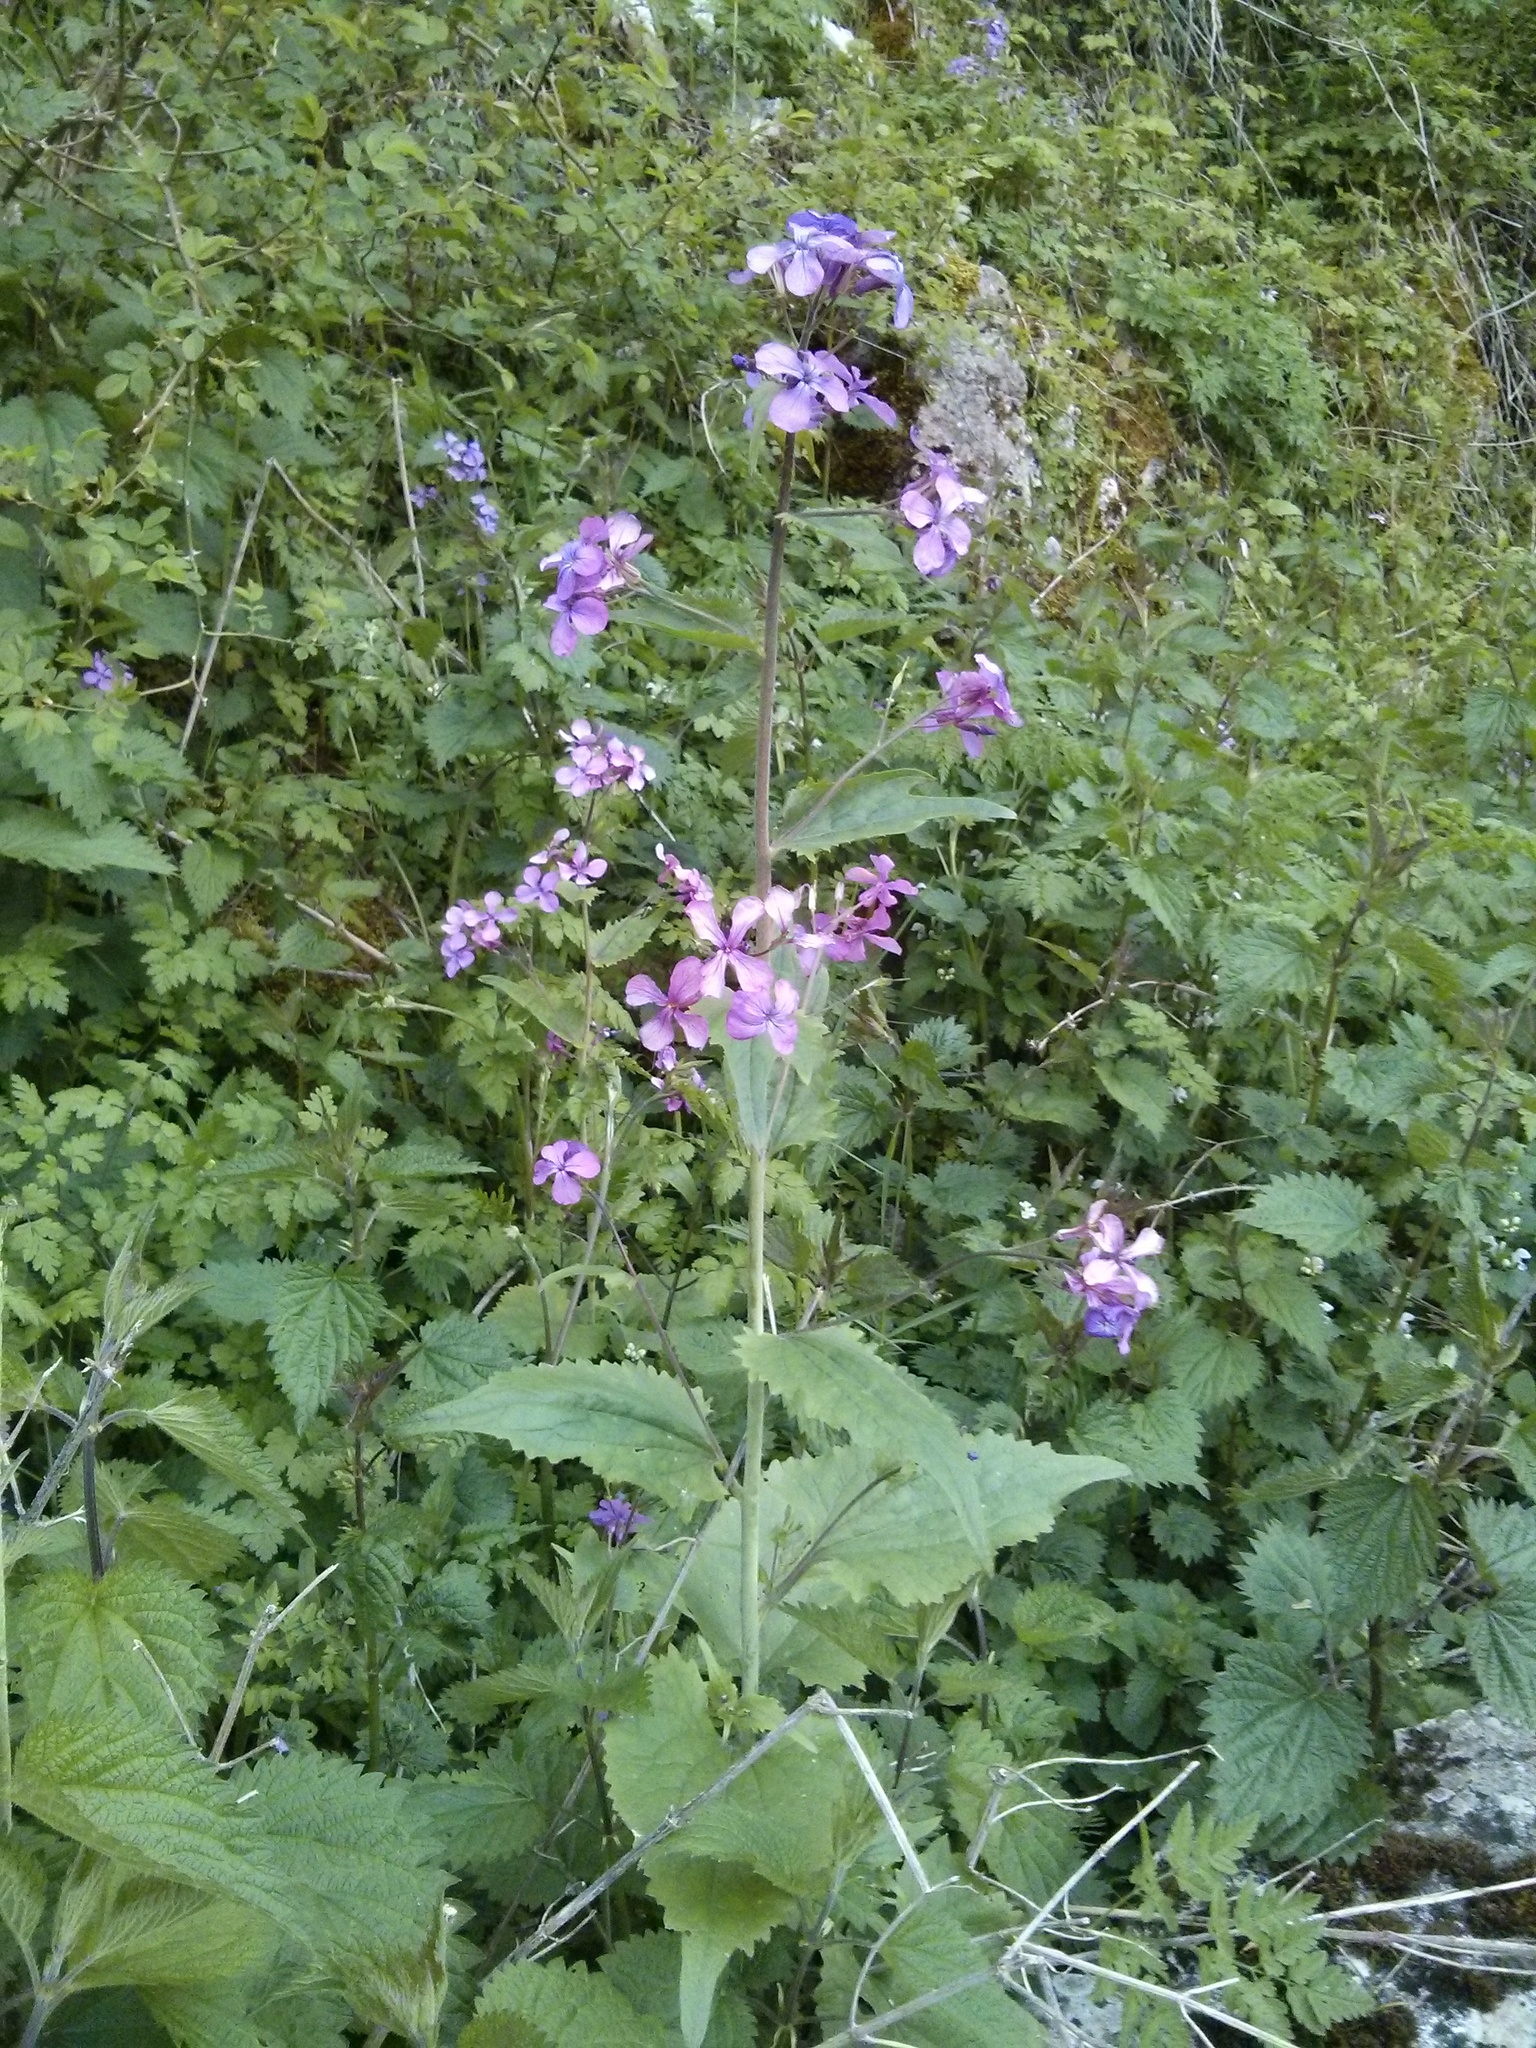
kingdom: Plantae
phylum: Tracheophyta
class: Magnoliopsida
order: Brassicales
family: Brassicaceae
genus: Lunaria
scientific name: Lunaria annua
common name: Honesty
